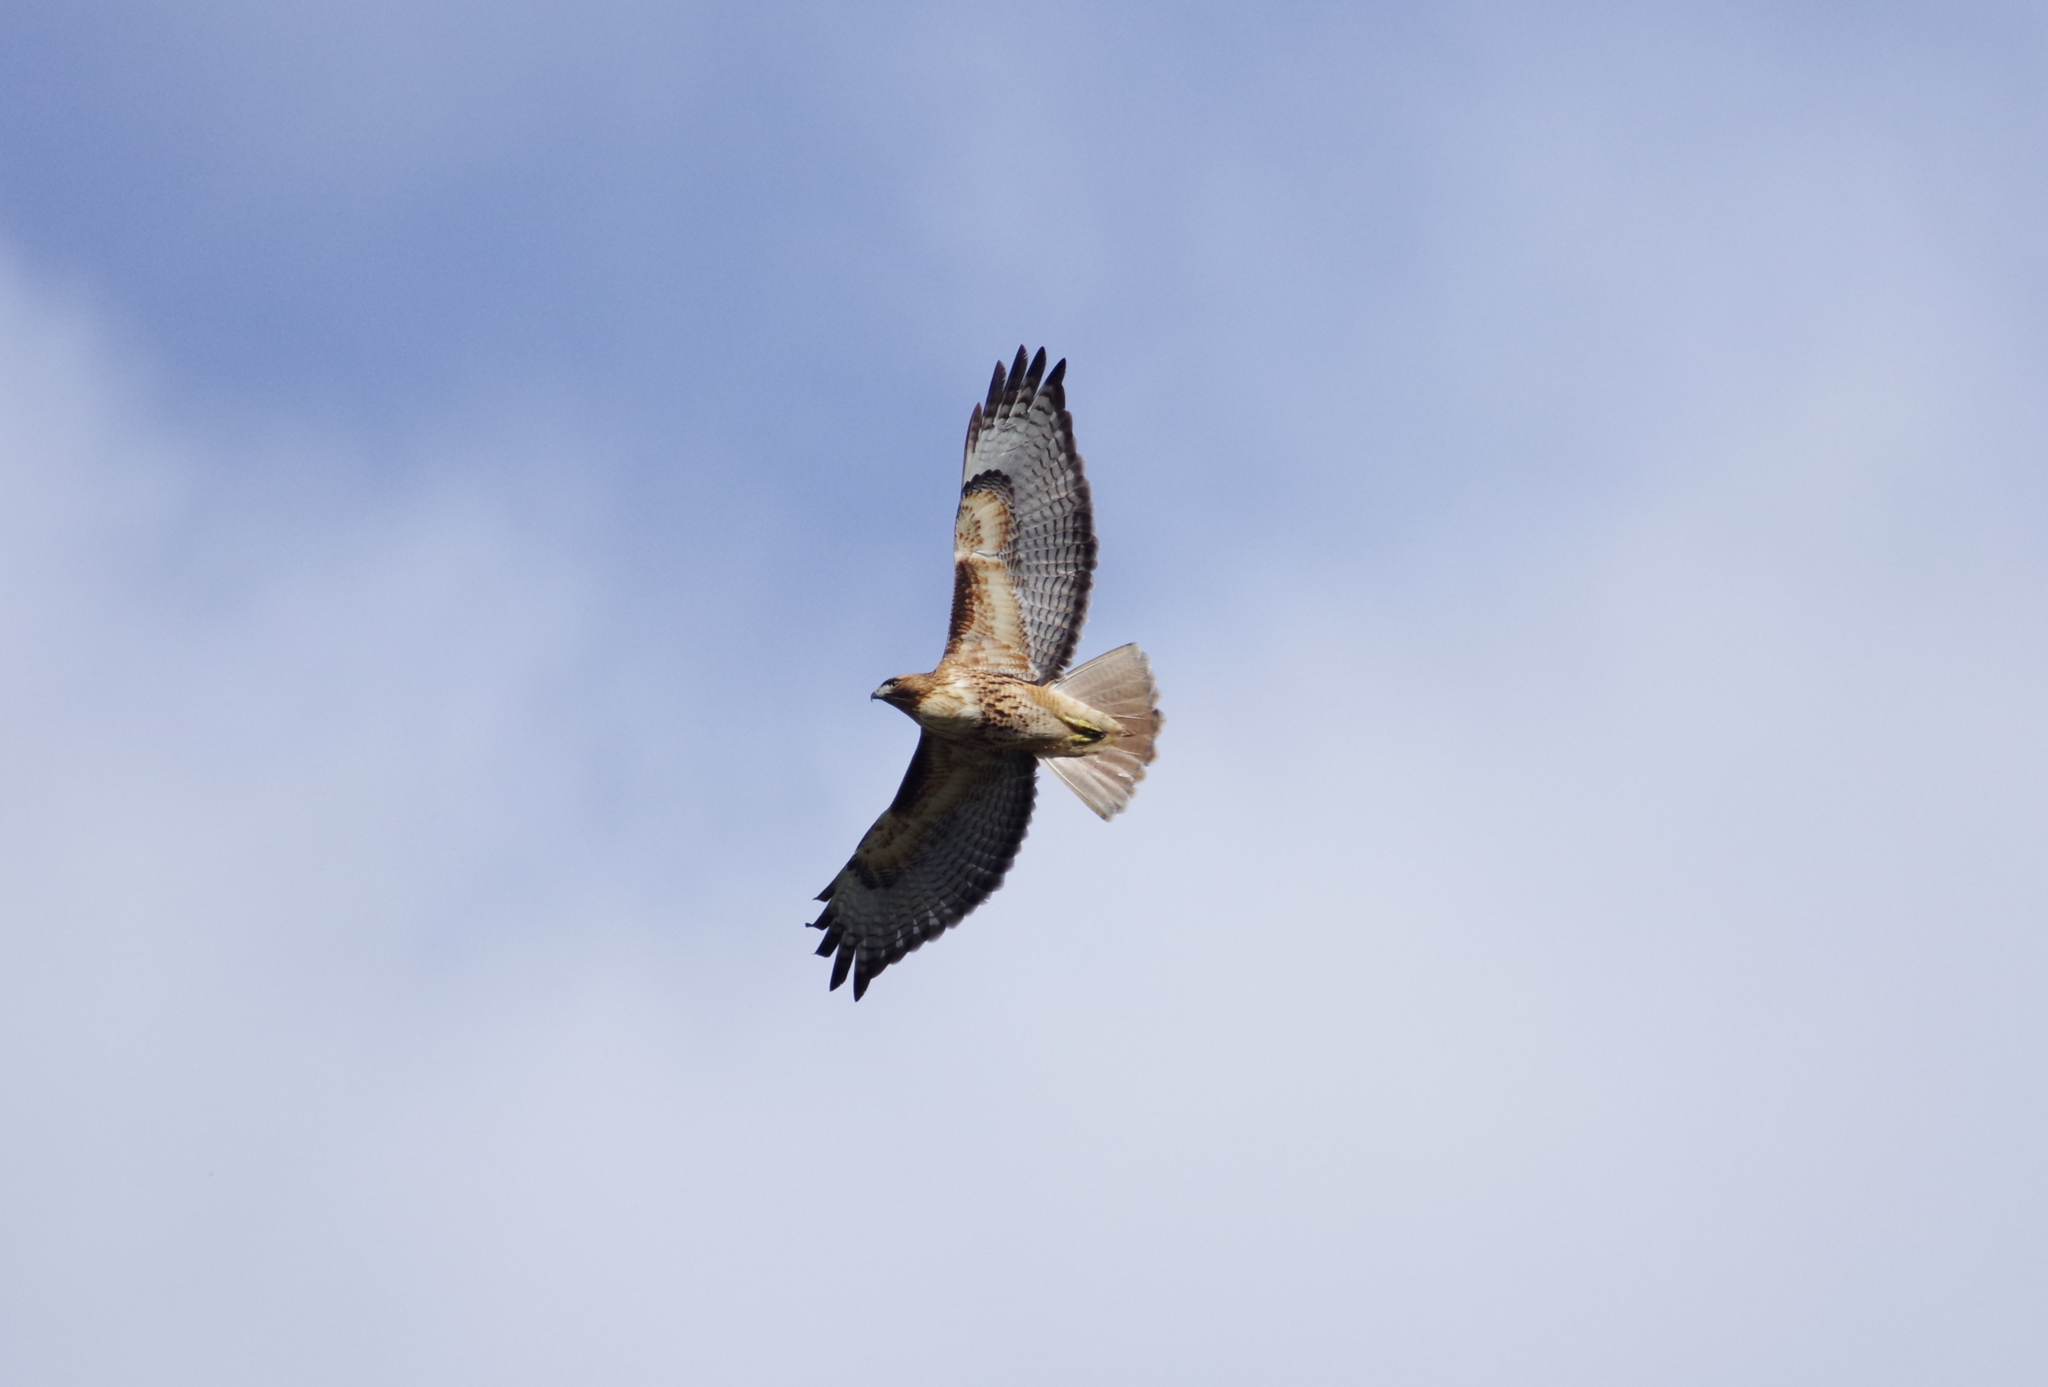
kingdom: Animalia
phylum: Chordata
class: Aves
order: Accipitriformes
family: Accipitridae
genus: Buteo
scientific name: Buteo jamaicensis
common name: Red-tailed hawk
